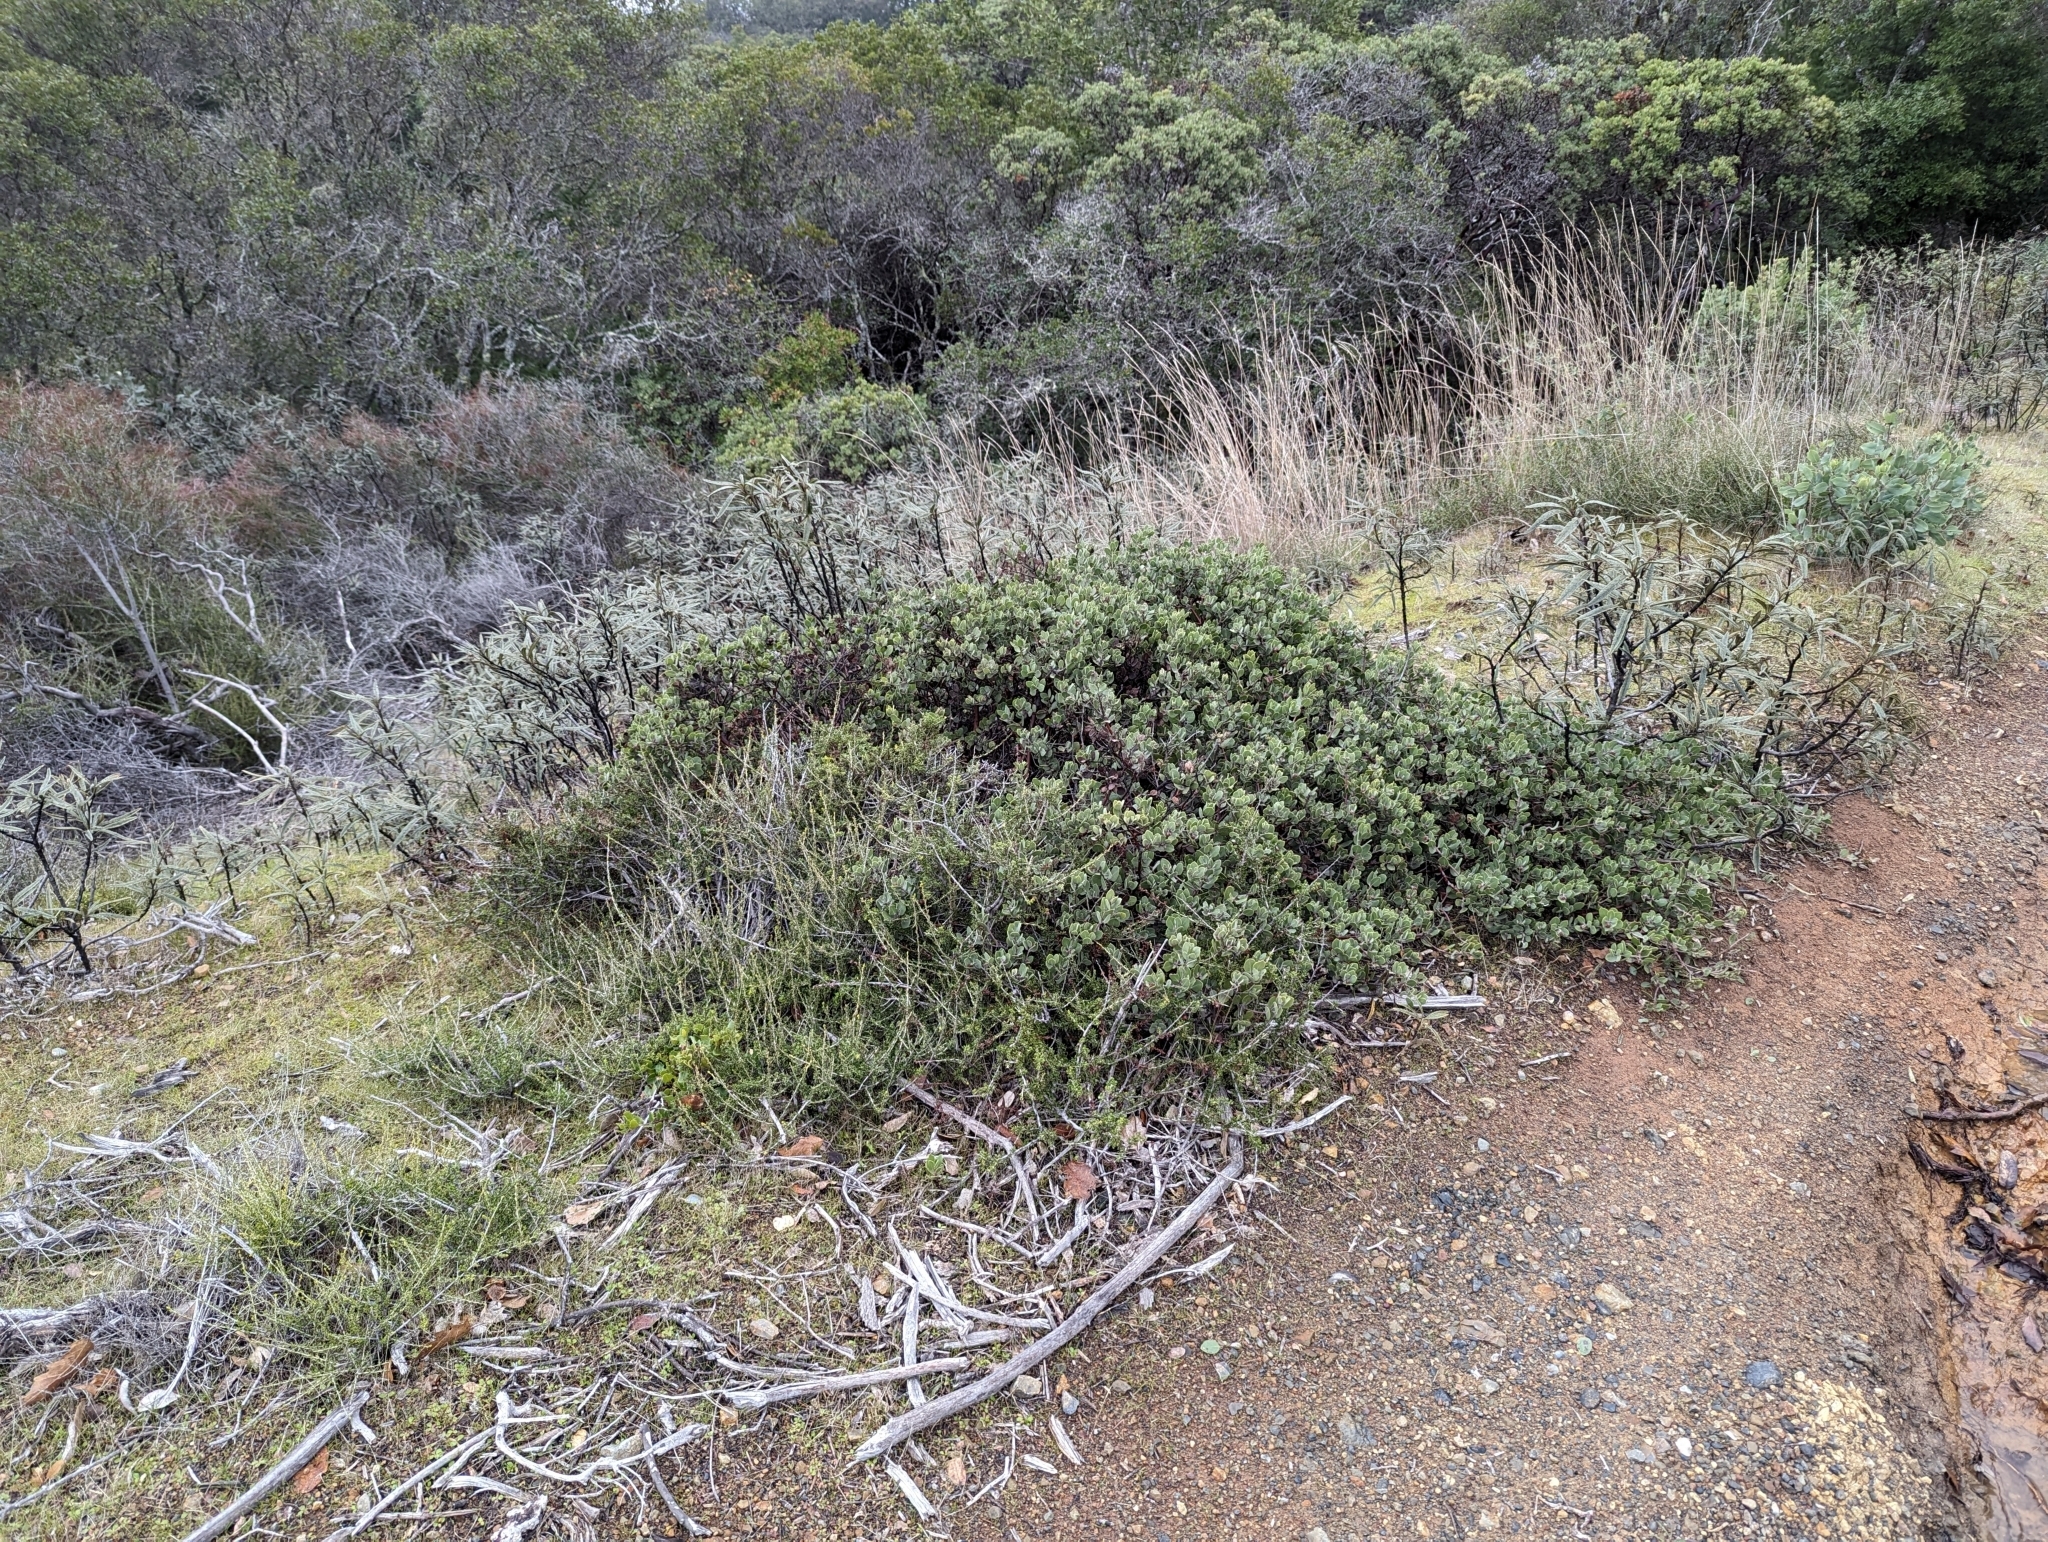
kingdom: Plantae
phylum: Tracheophyta
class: Magnoliopsida
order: Ericales
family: Ericaceae
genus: Arctostaphylos
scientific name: Arctostaphylos montana
